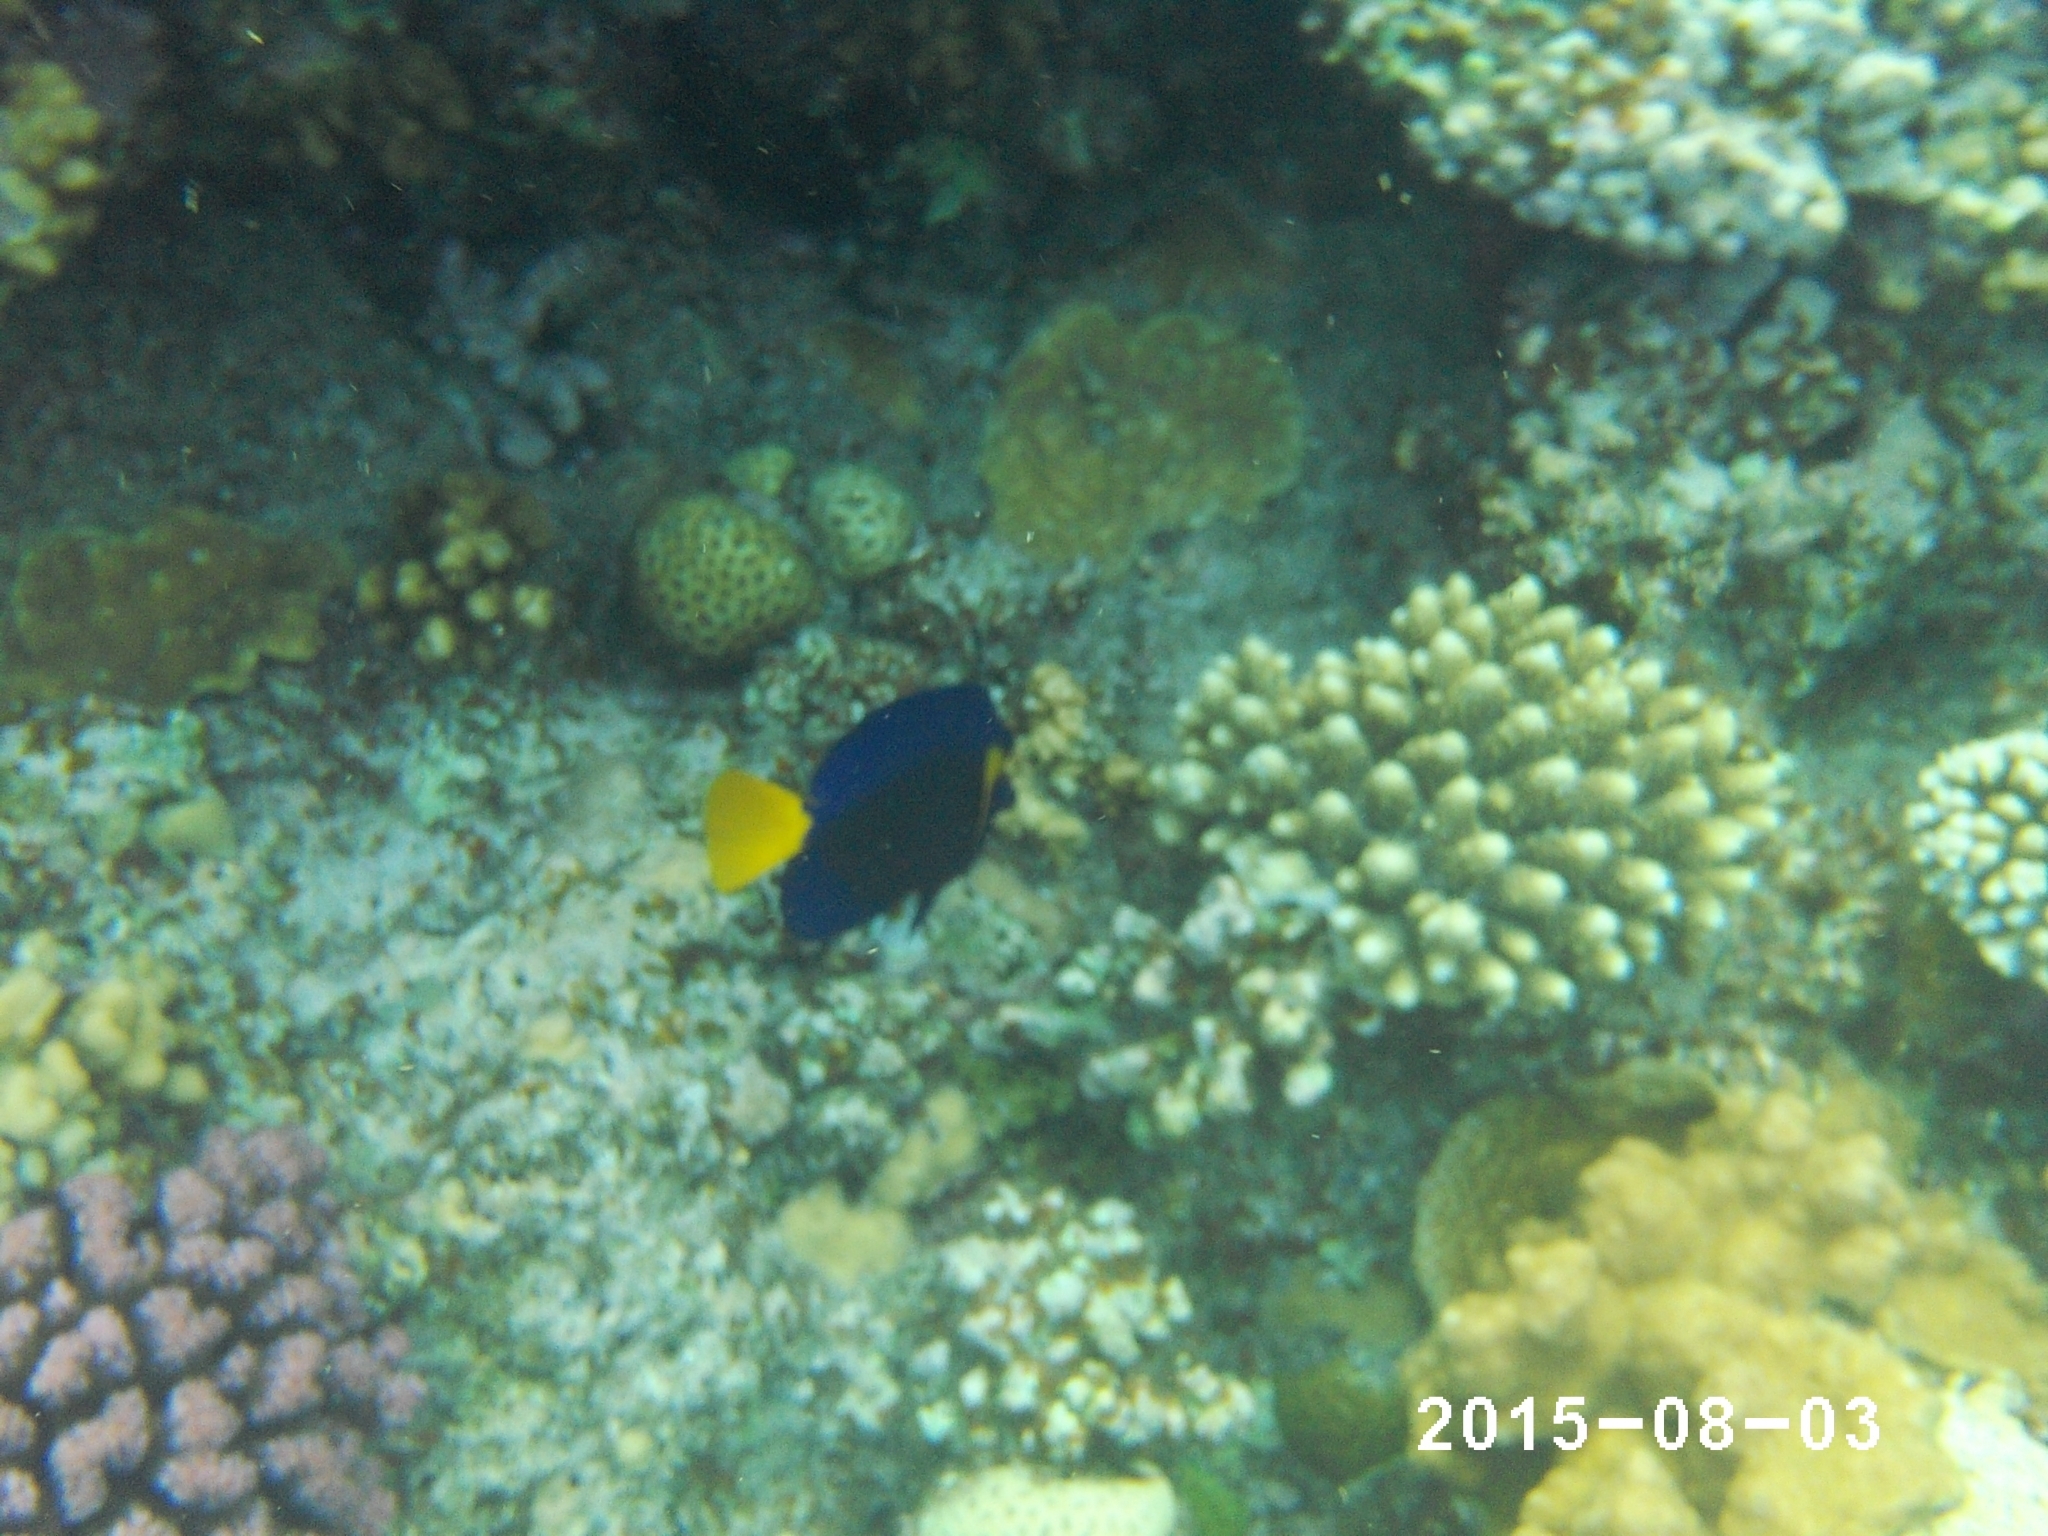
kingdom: Animalia
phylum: Chordata
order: Perciformes
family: Acanthuridae
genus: Zebrasoma
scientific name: Zebrasoma xanthurum
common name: Purple tang
